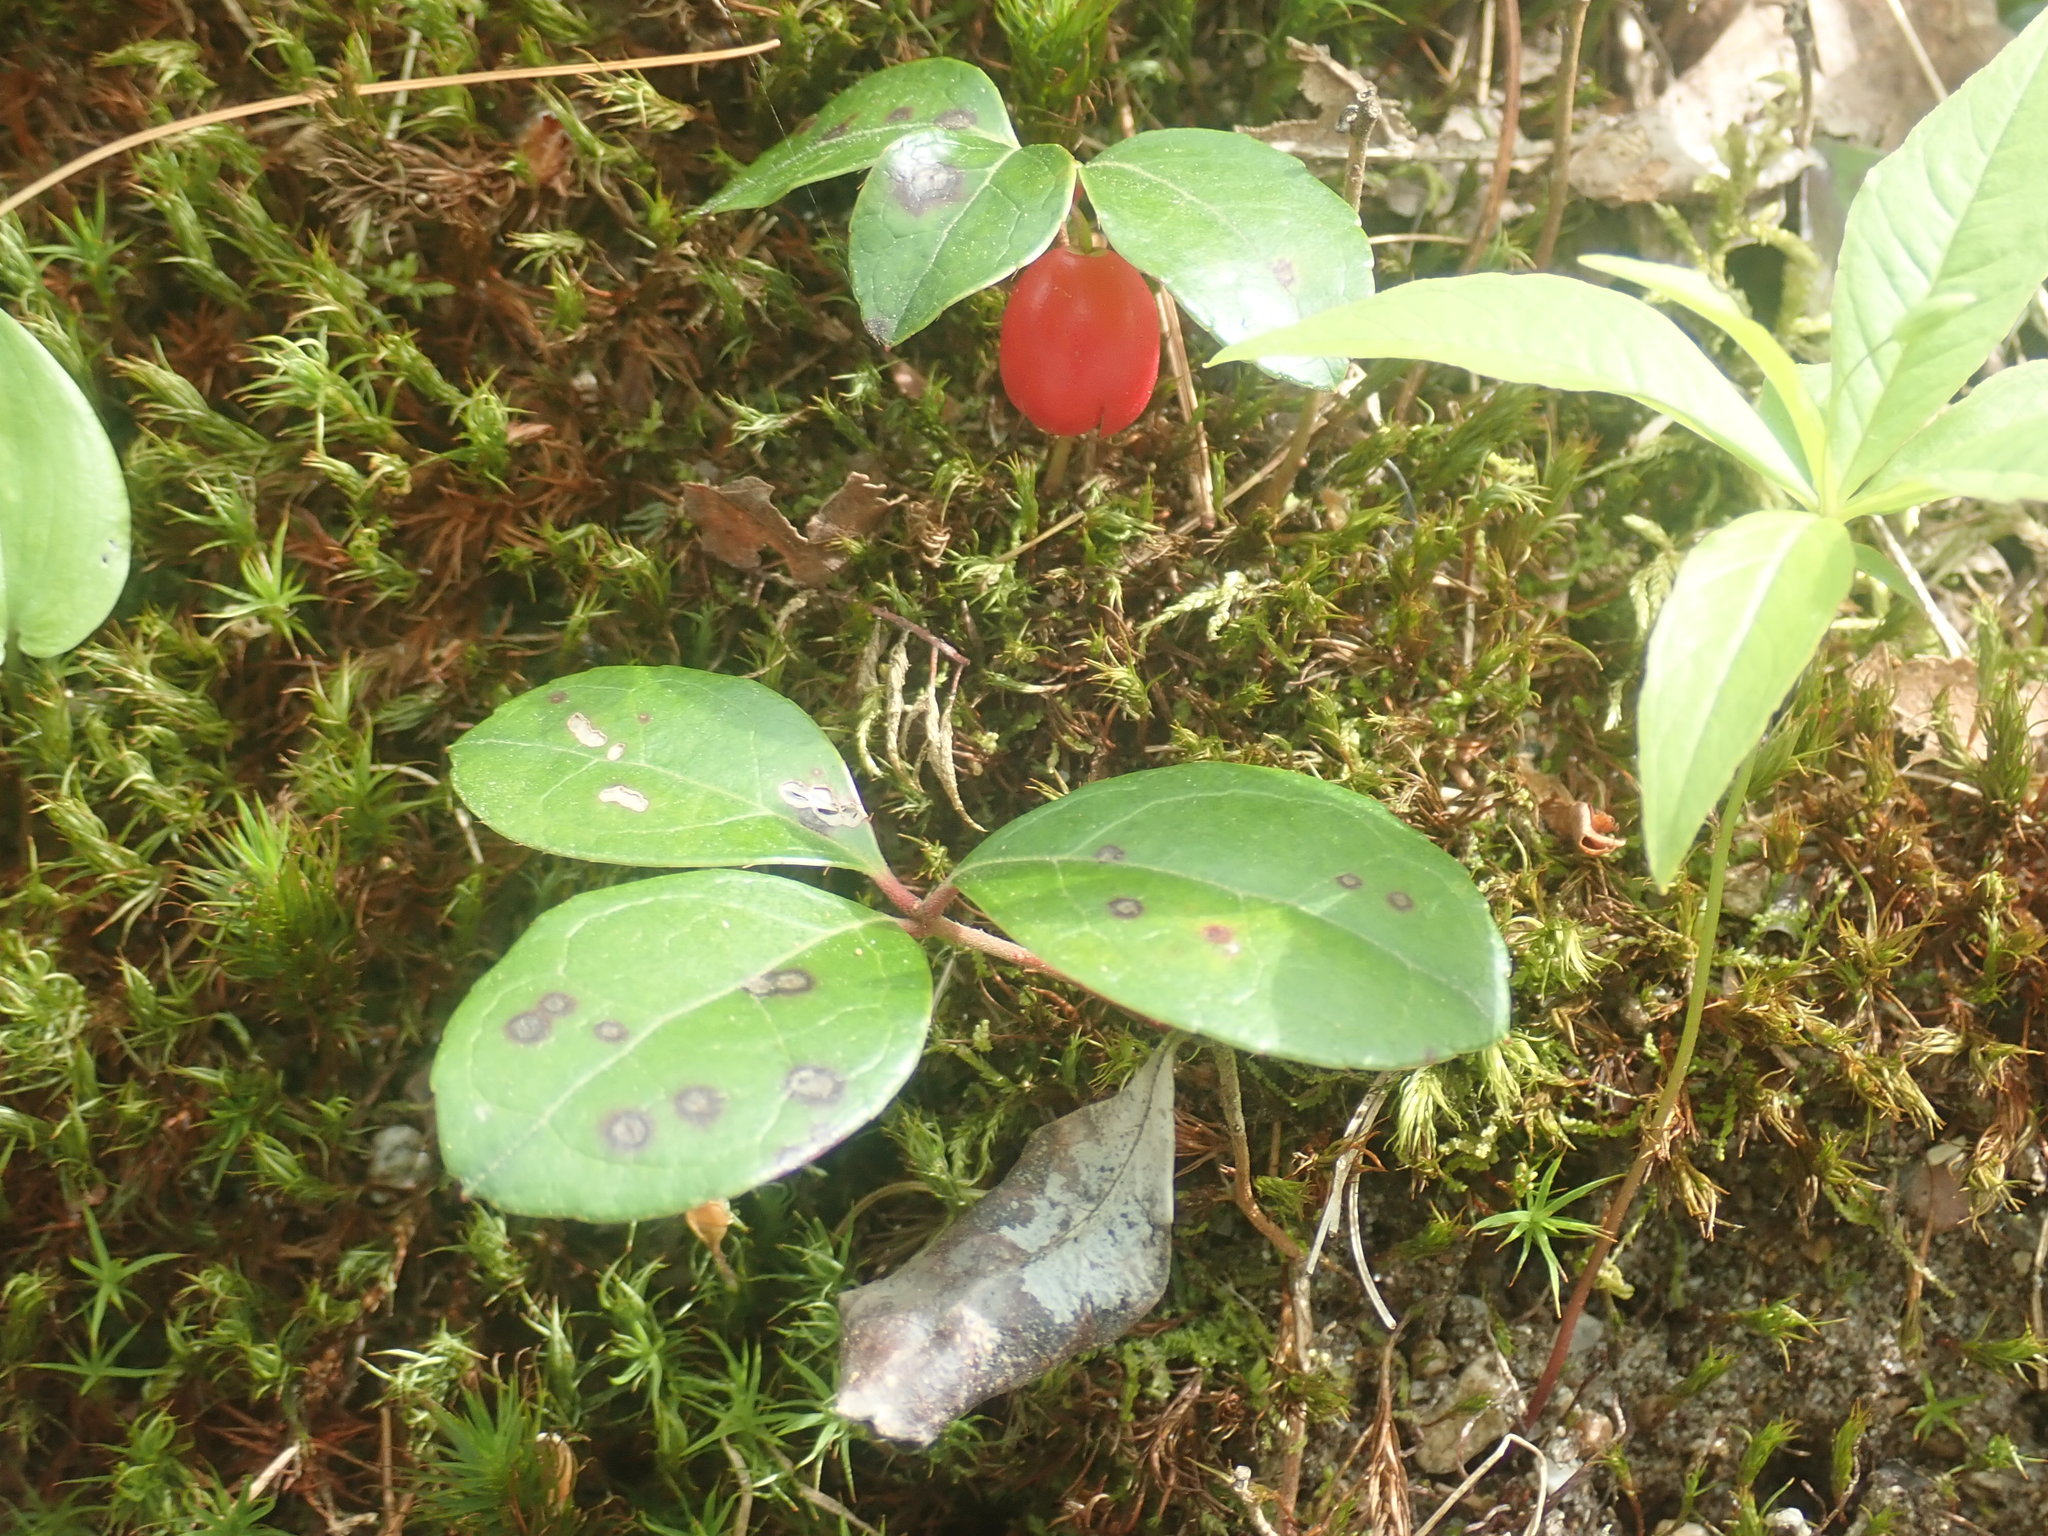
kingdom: Plantae
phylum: Tracheophyta
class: Magnoliopsida
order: Ericales
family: Ericaceae
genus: Gaultheria
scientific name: Gaultheria procumbens
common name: Checkerberry
